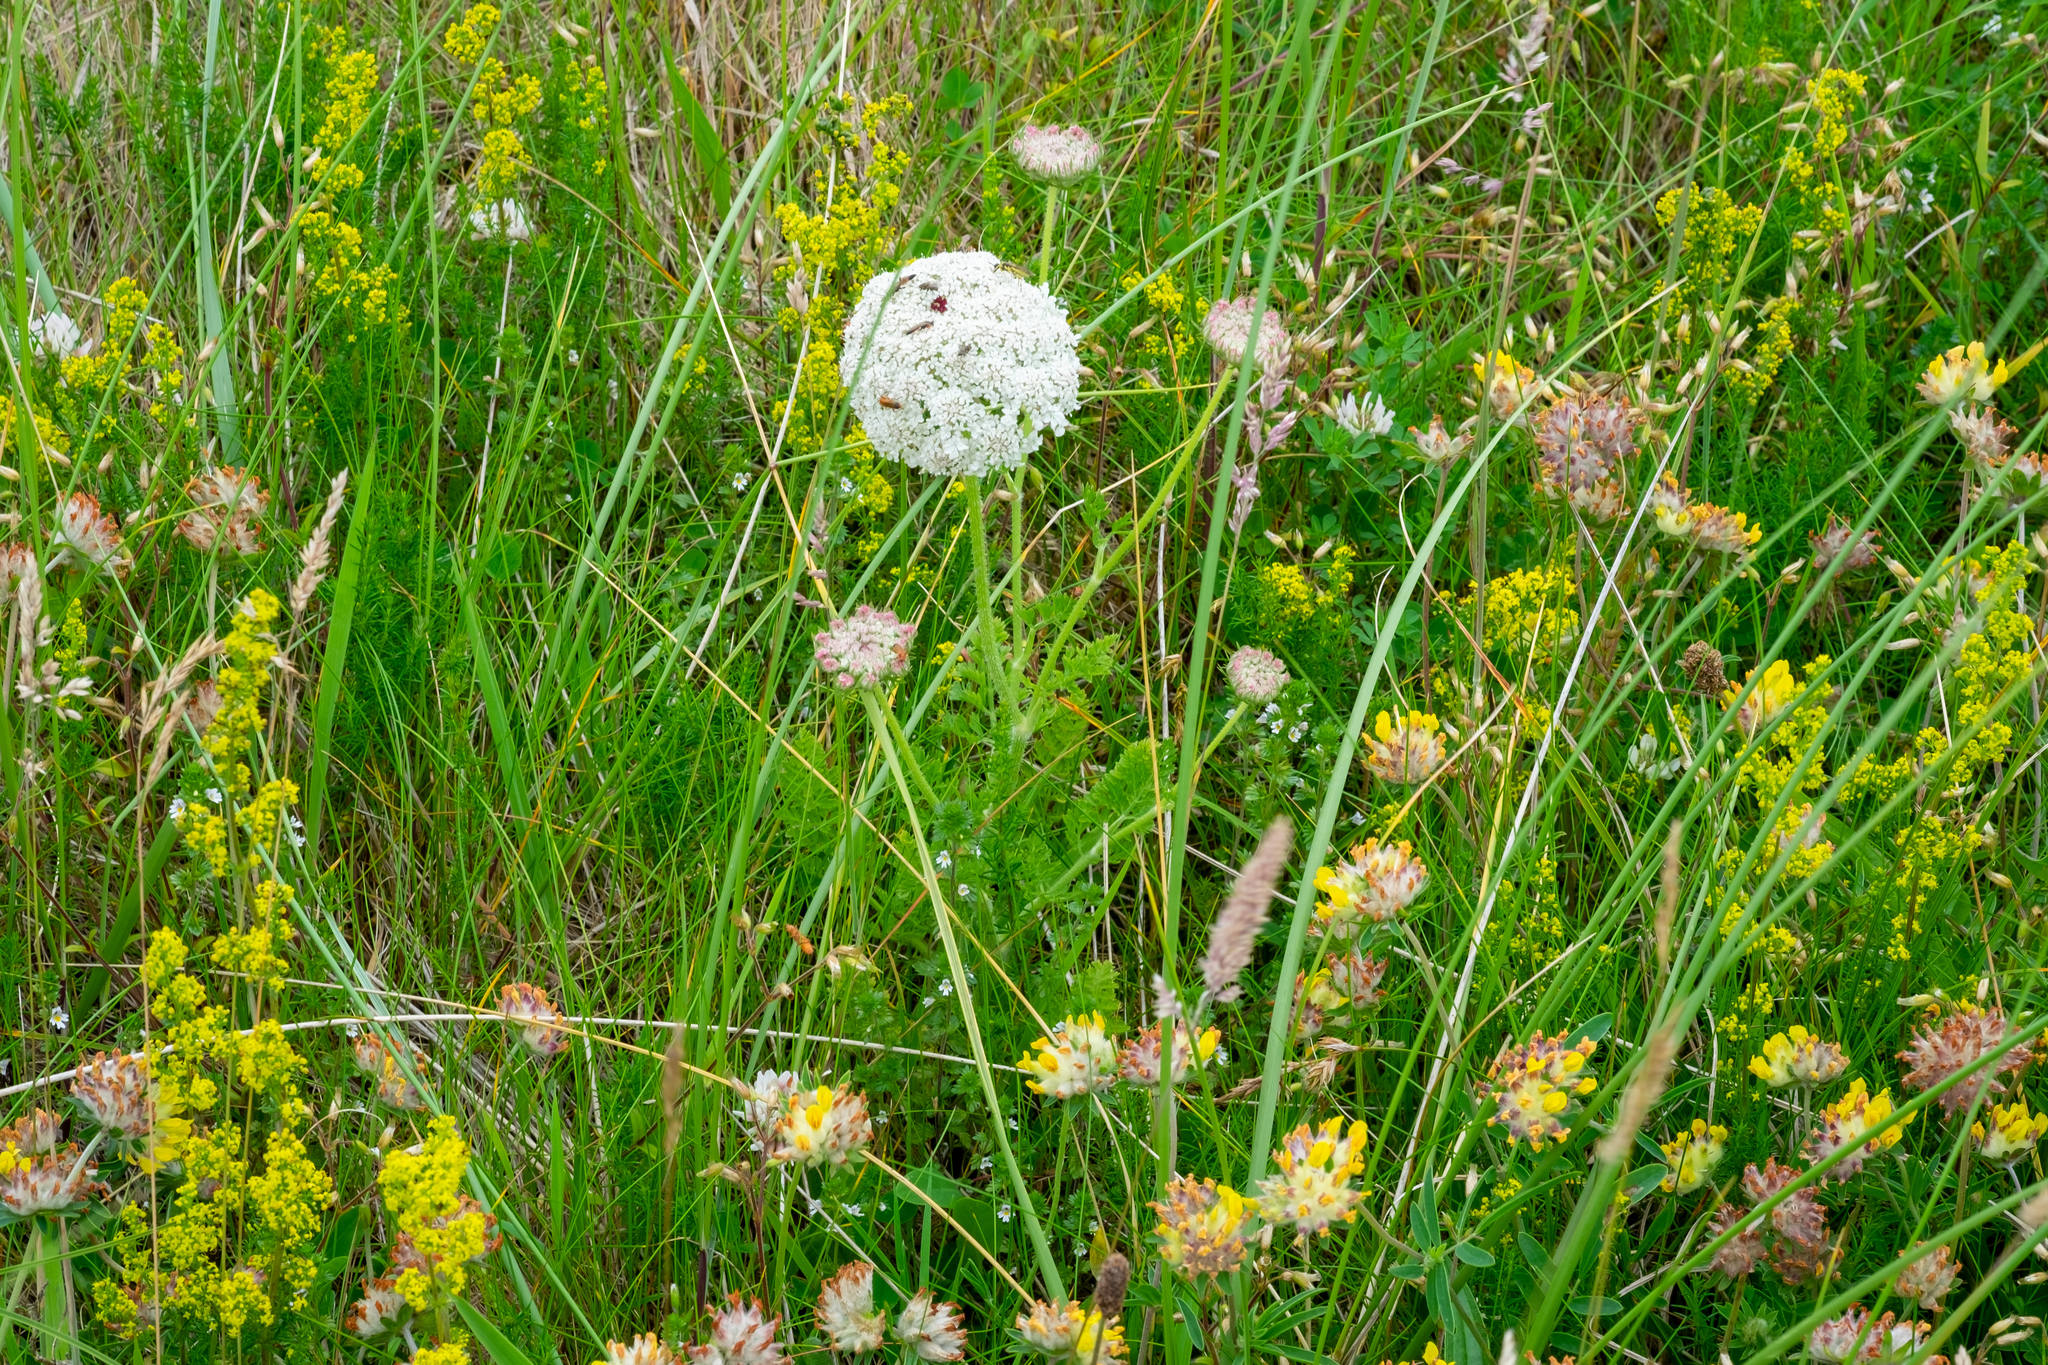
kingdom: Plantae
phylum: Tracheophyta
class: Magnoliopsida
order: Apiales
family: Apiaceae
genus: Daucus
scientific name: Daucus carota
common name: Wild carrot
